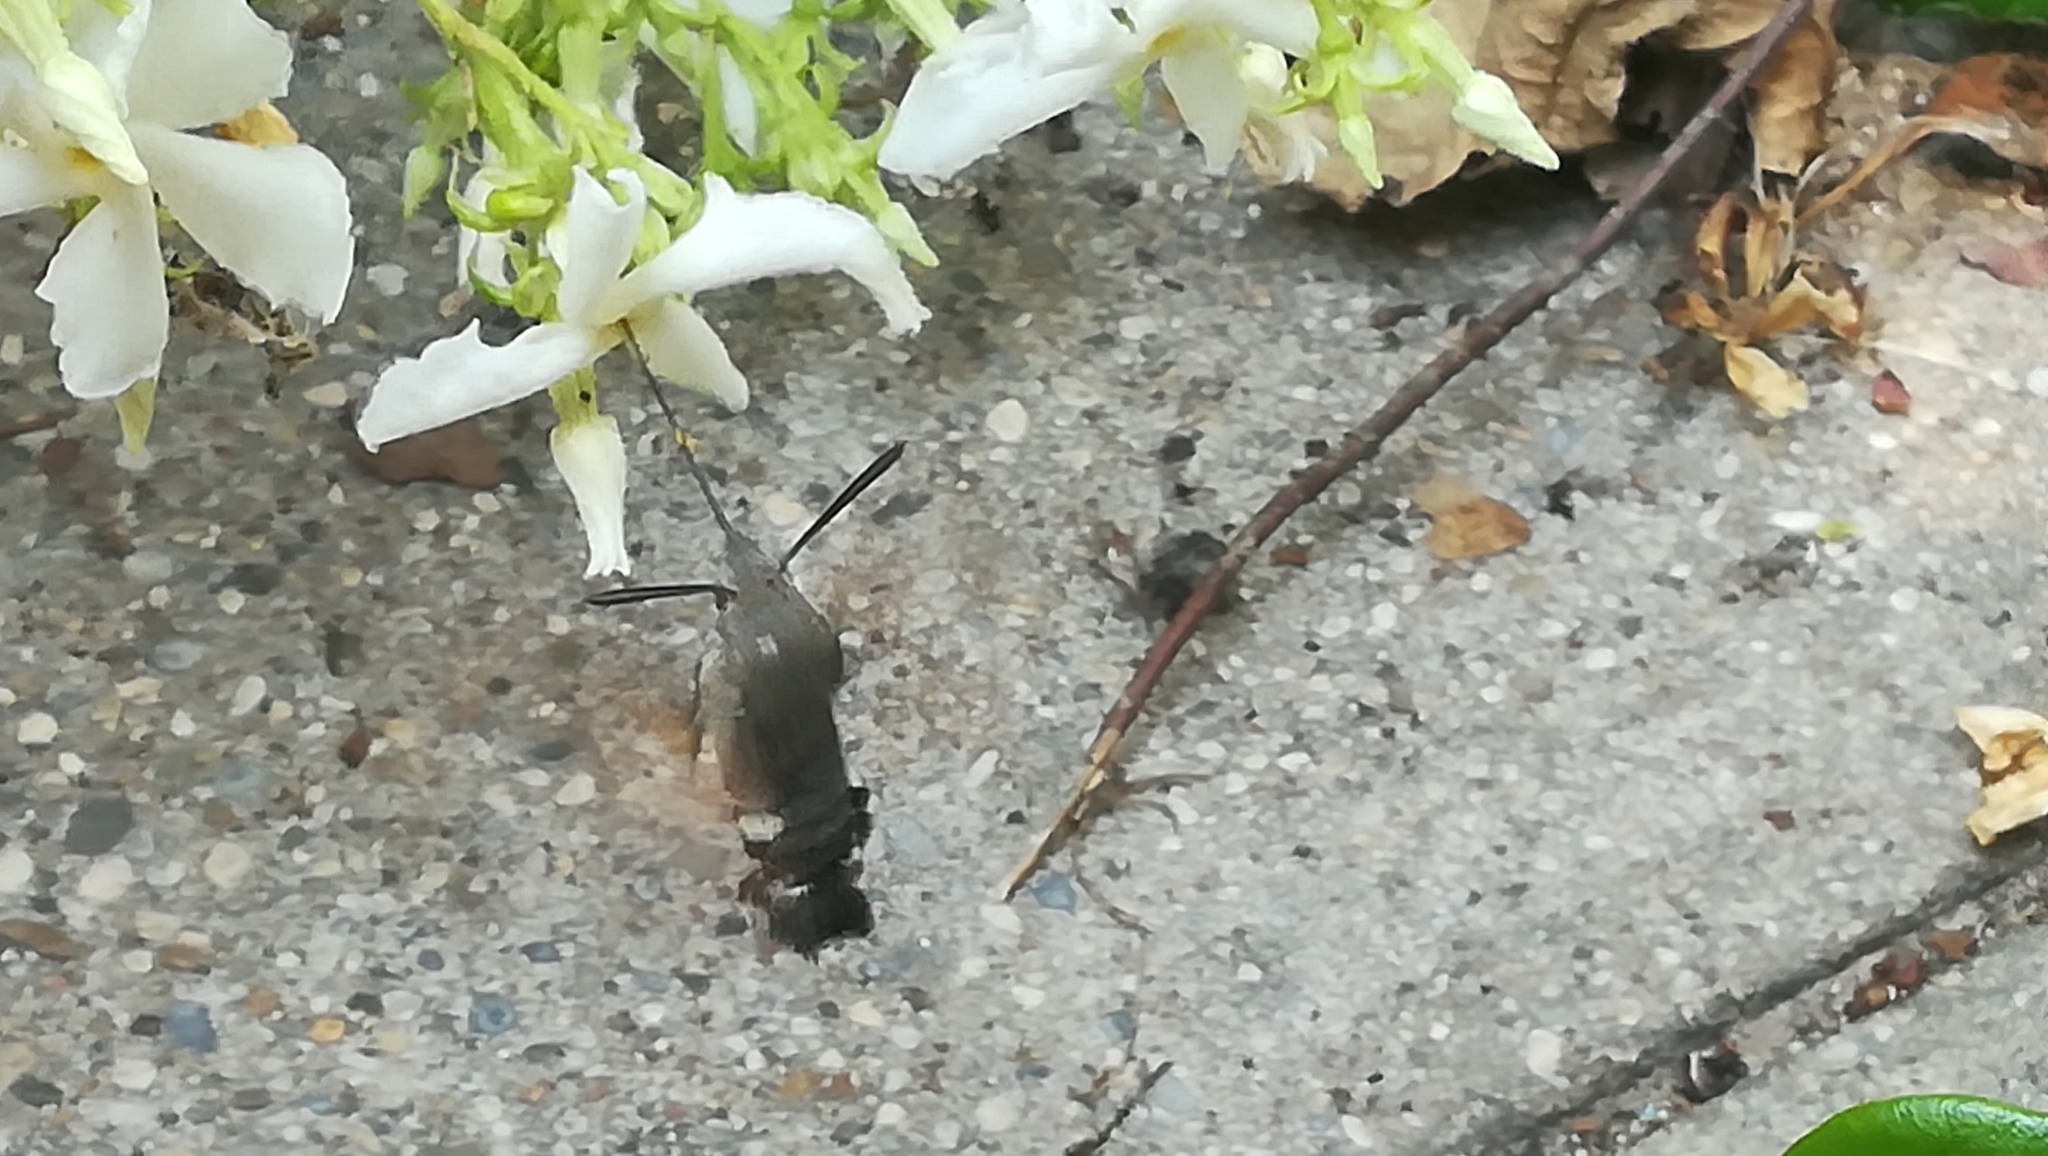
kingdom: Animalia
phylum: Arthropoda
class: Insecta
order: Lepidoptera
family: Sphingidae
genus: Macroglossum
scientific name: Macroglossum stellatarum
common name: Humming-bird hawk-moth
